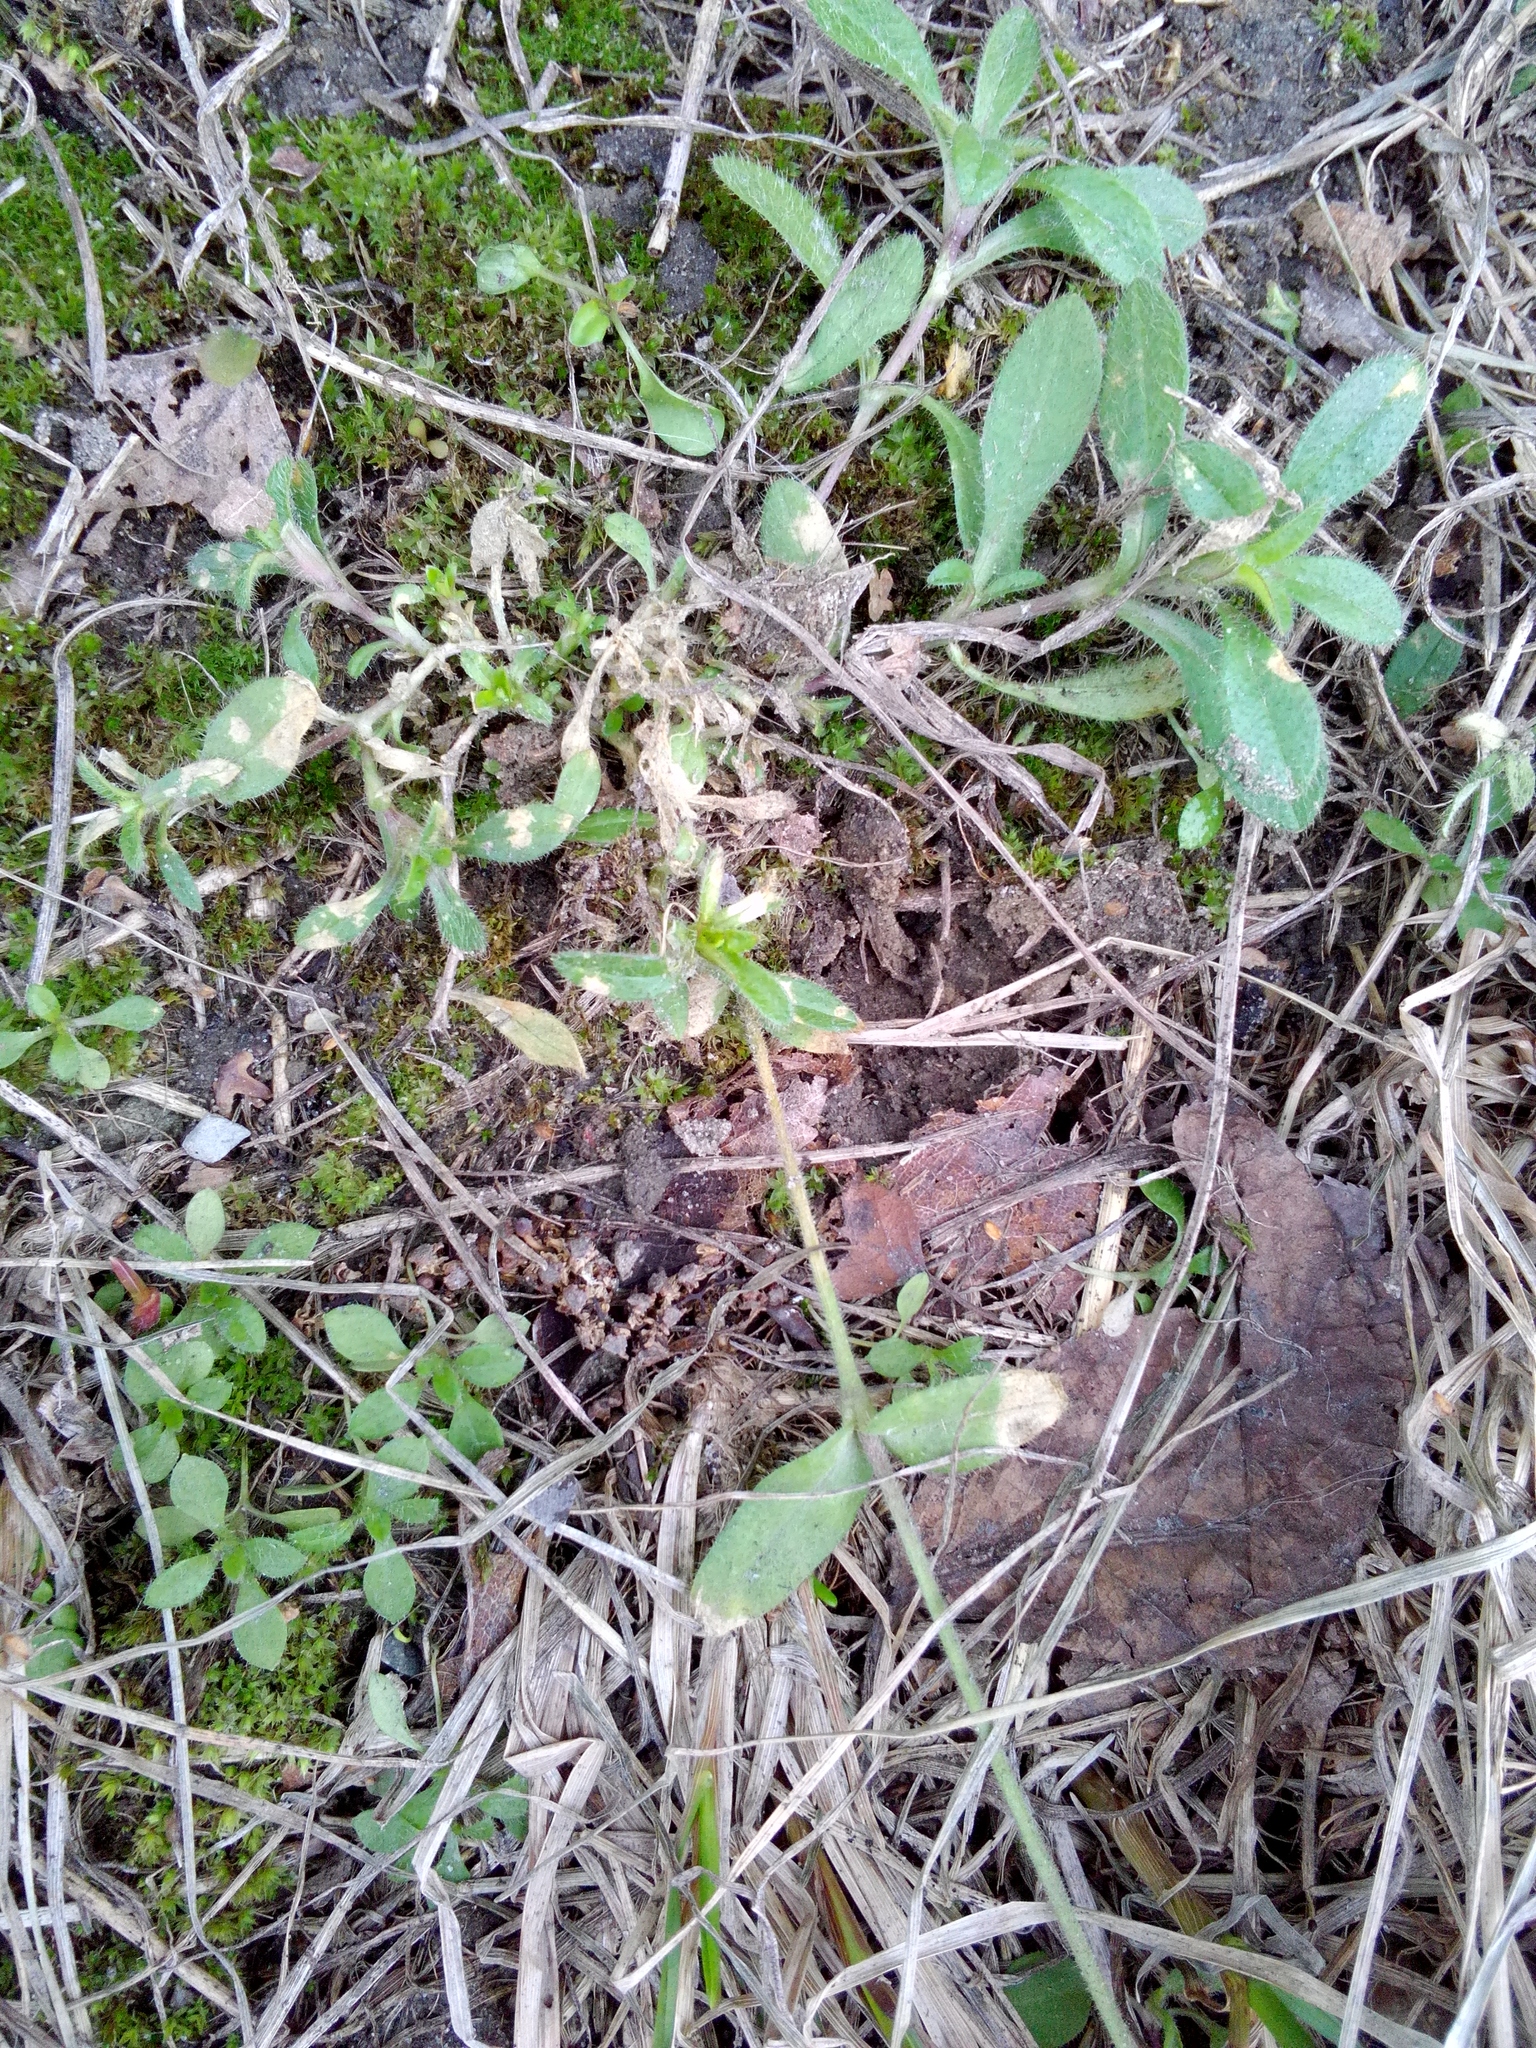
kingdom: Plantae
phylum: Tracheophyta
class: Magnoliopsida
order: Caryophyllales
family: Caryophyllaceae
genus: Cerastium
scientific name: Cerastium holosteoides
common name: Big chickweed
